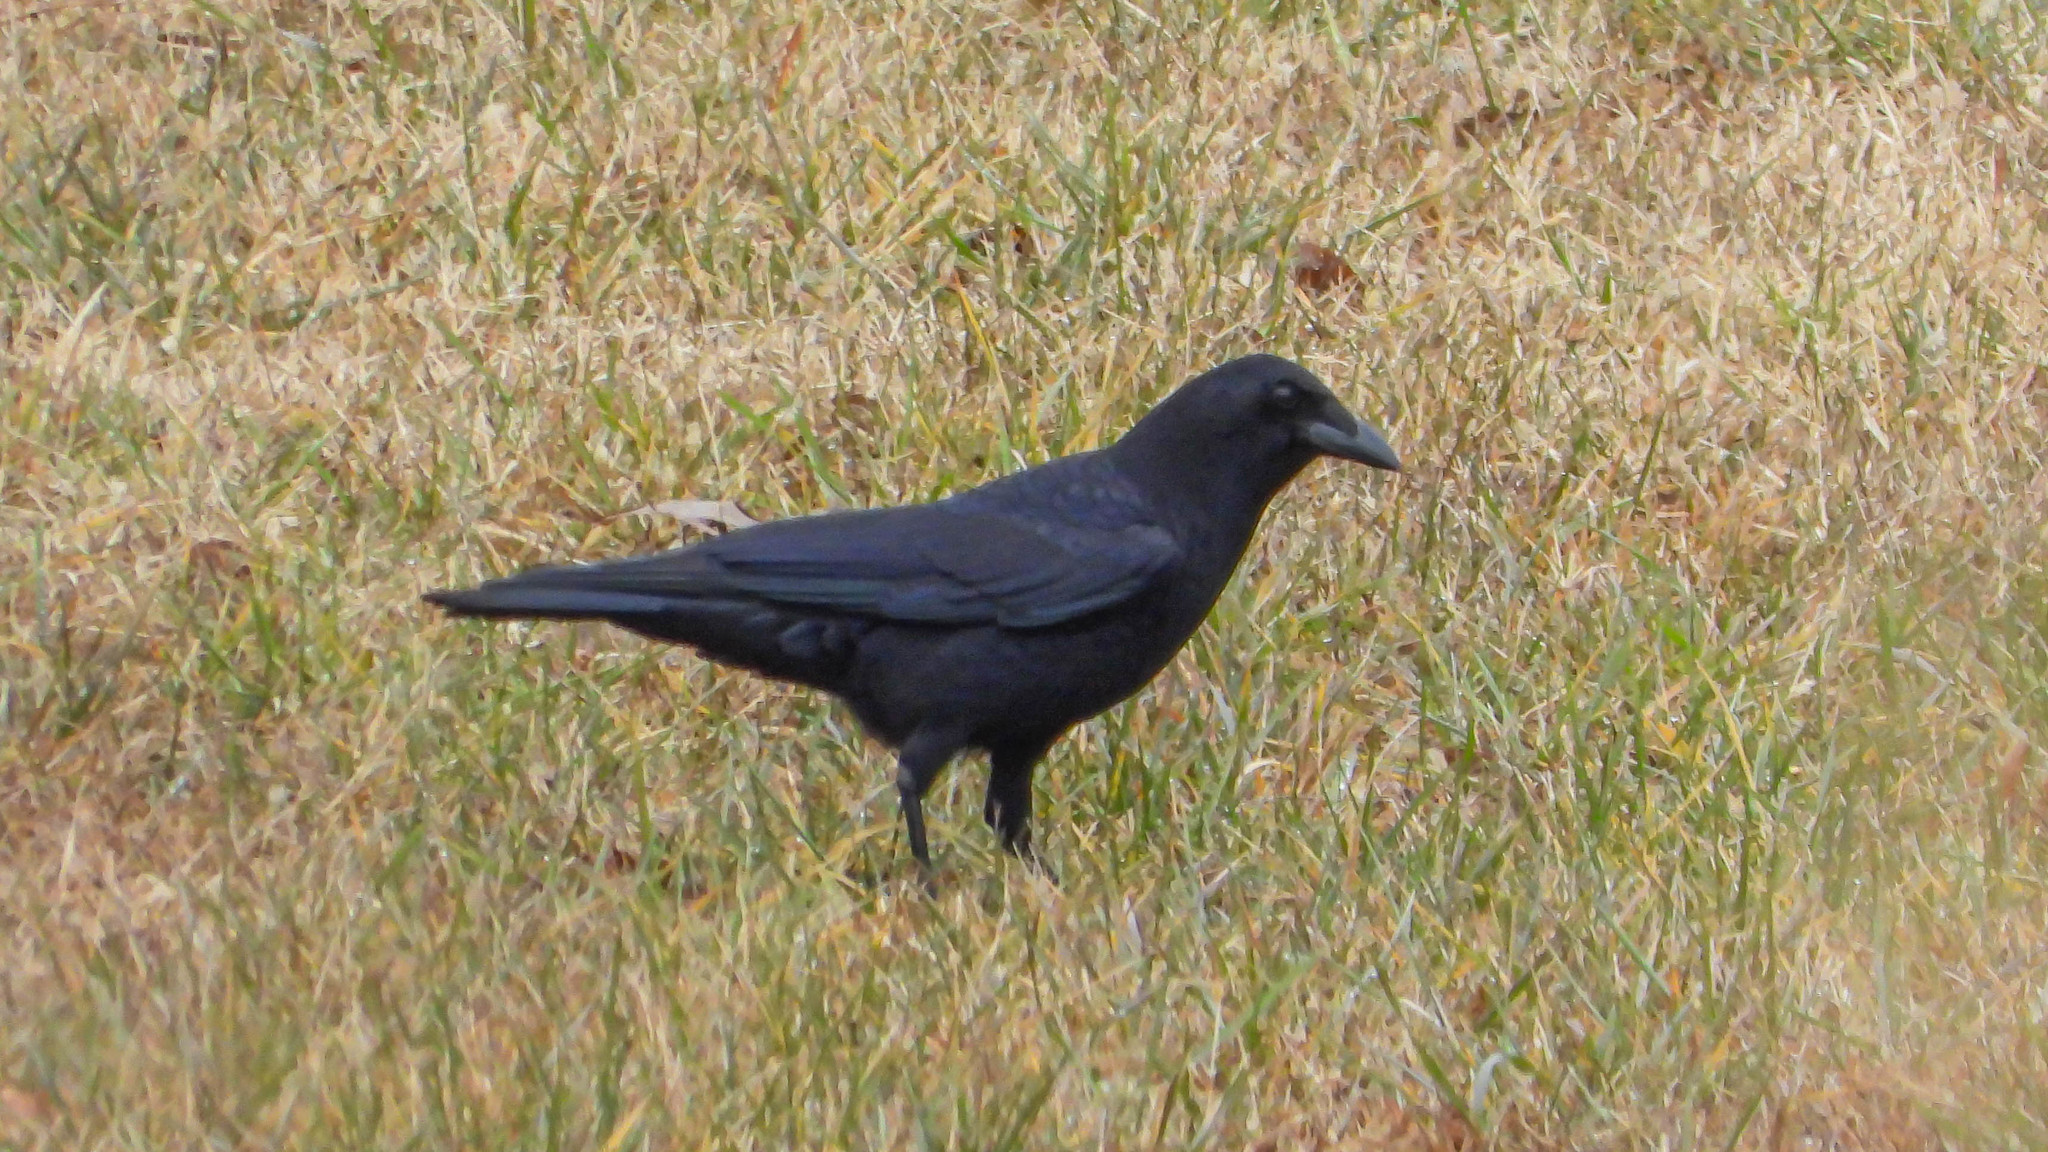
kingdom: Animalia
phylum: Chordata
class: Aves
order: Passeriformes
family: Corvidae
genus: Corvus
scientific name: Corvus brachyrhynchos
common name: American crow
